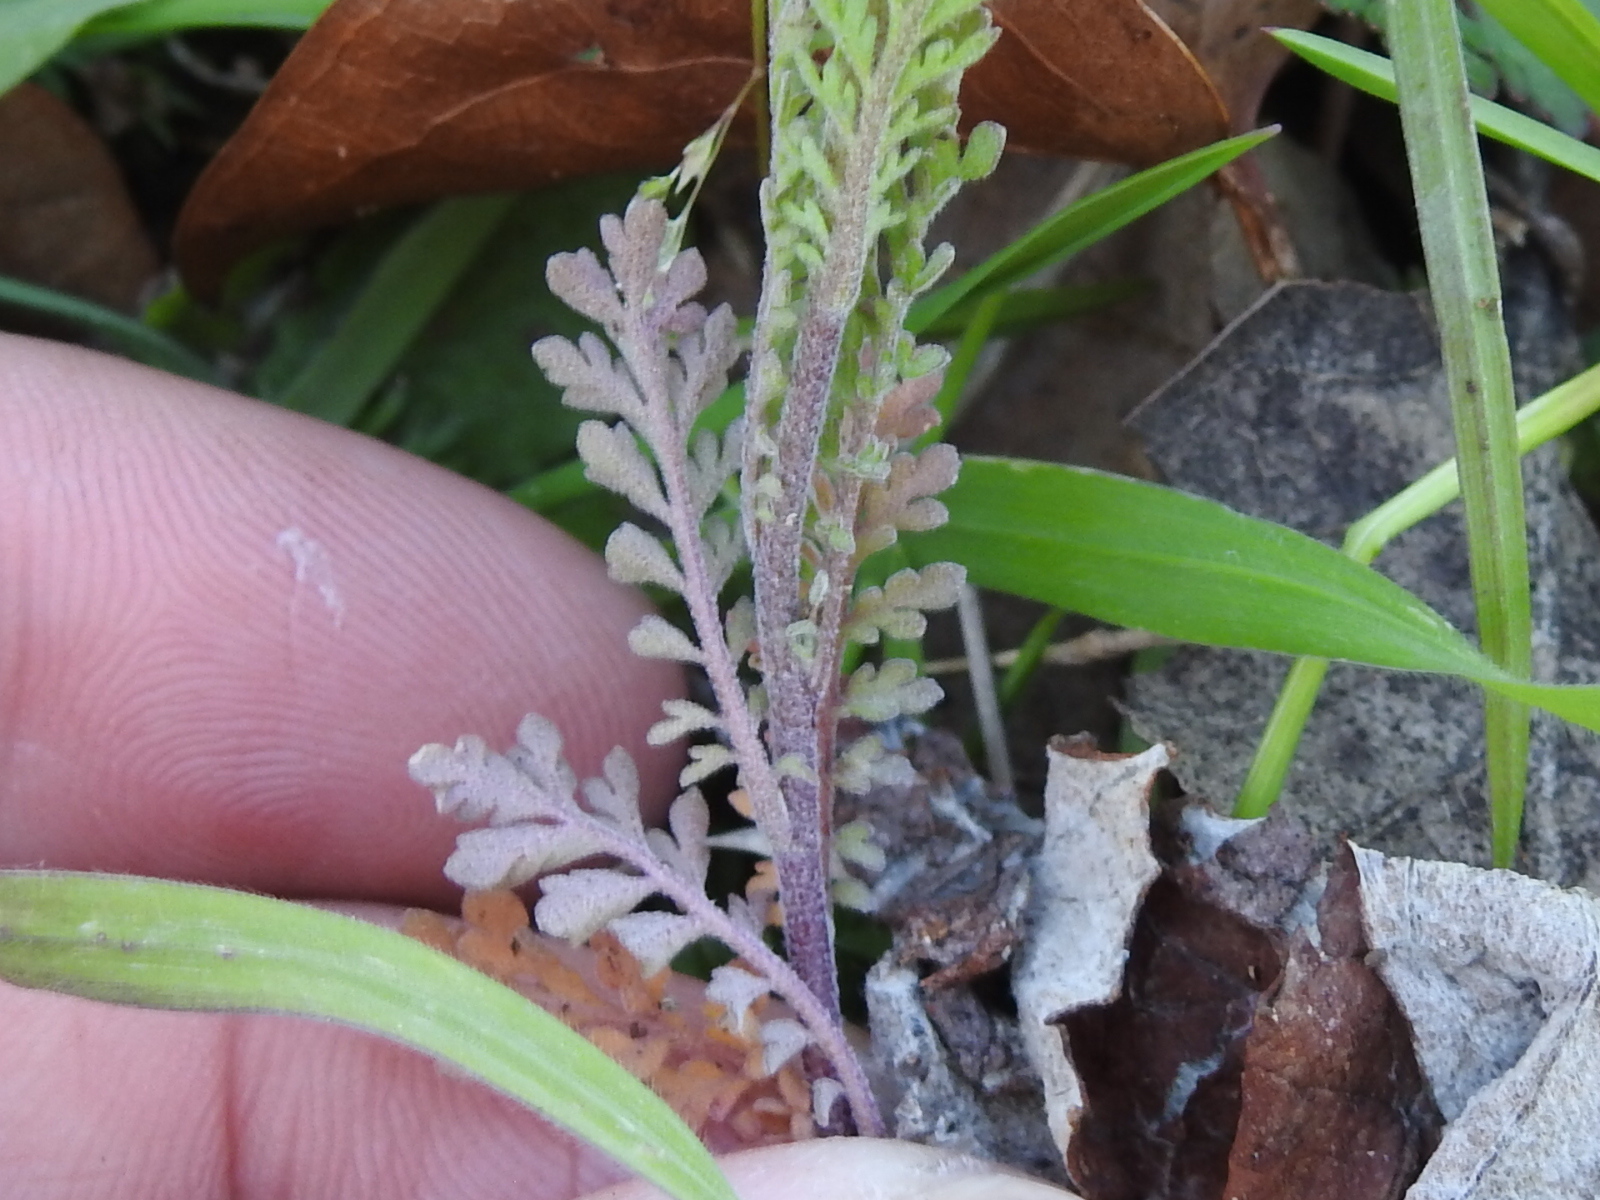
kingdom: Plantae
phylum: Tracheophyta
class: Magnoliopsida
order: Brassicales
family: Brassicaceae
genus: Descurainia
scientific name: Descurainia pinnata
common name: Western tansy mustard
